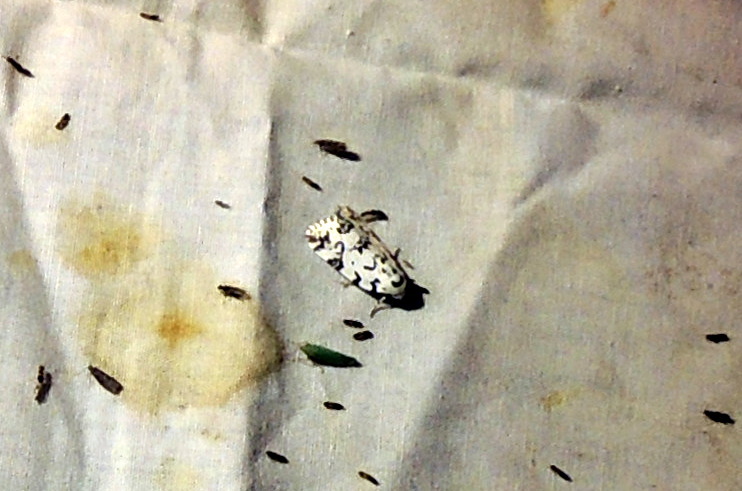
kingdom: Animalia
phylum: Arthropoda
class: Insecta
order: Lepidoptera
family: Noctuidae
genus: Polygrammate
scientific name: Polygrammate hebraeicum
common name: Hebrew moth
